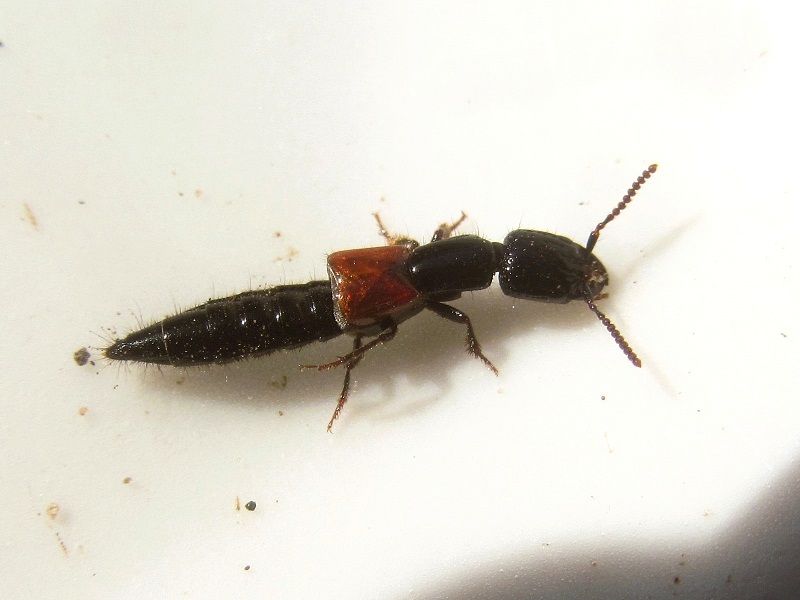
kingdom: Animalia
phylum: Arthropoda
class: Insecta
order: Coleoptera
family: Staphylinidae
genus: Gauropterus
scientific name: Gauropterus fulgidus
